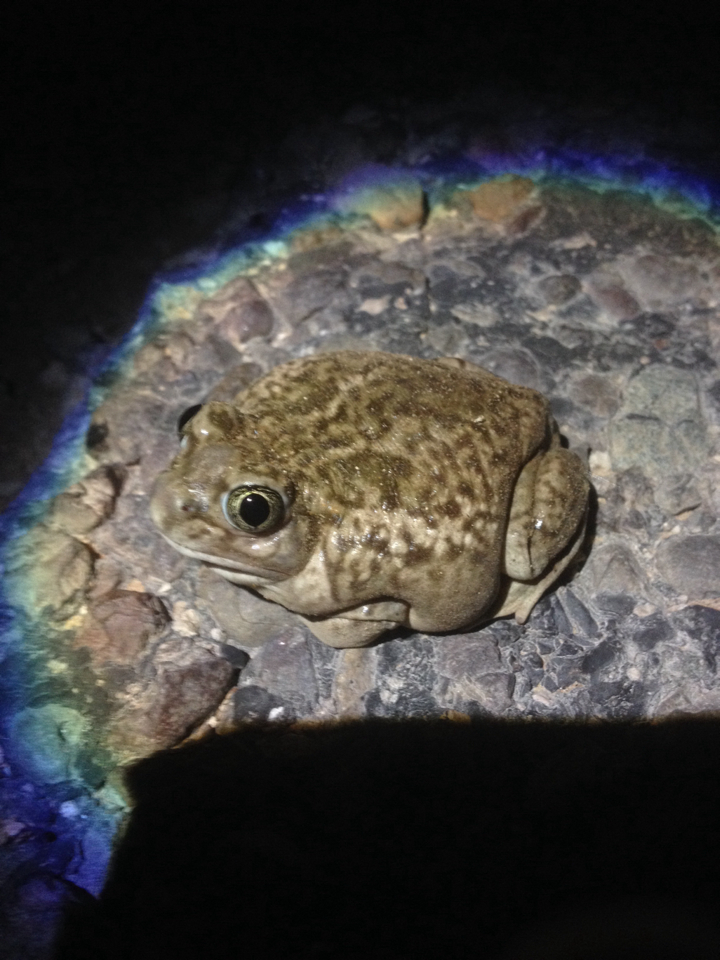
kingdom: Animalia
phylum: Chordata
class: Amphibia
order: Anura
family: Scaphiopodidae
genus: Spea
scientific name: Spea bombifrons
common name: Plains spadefoot
